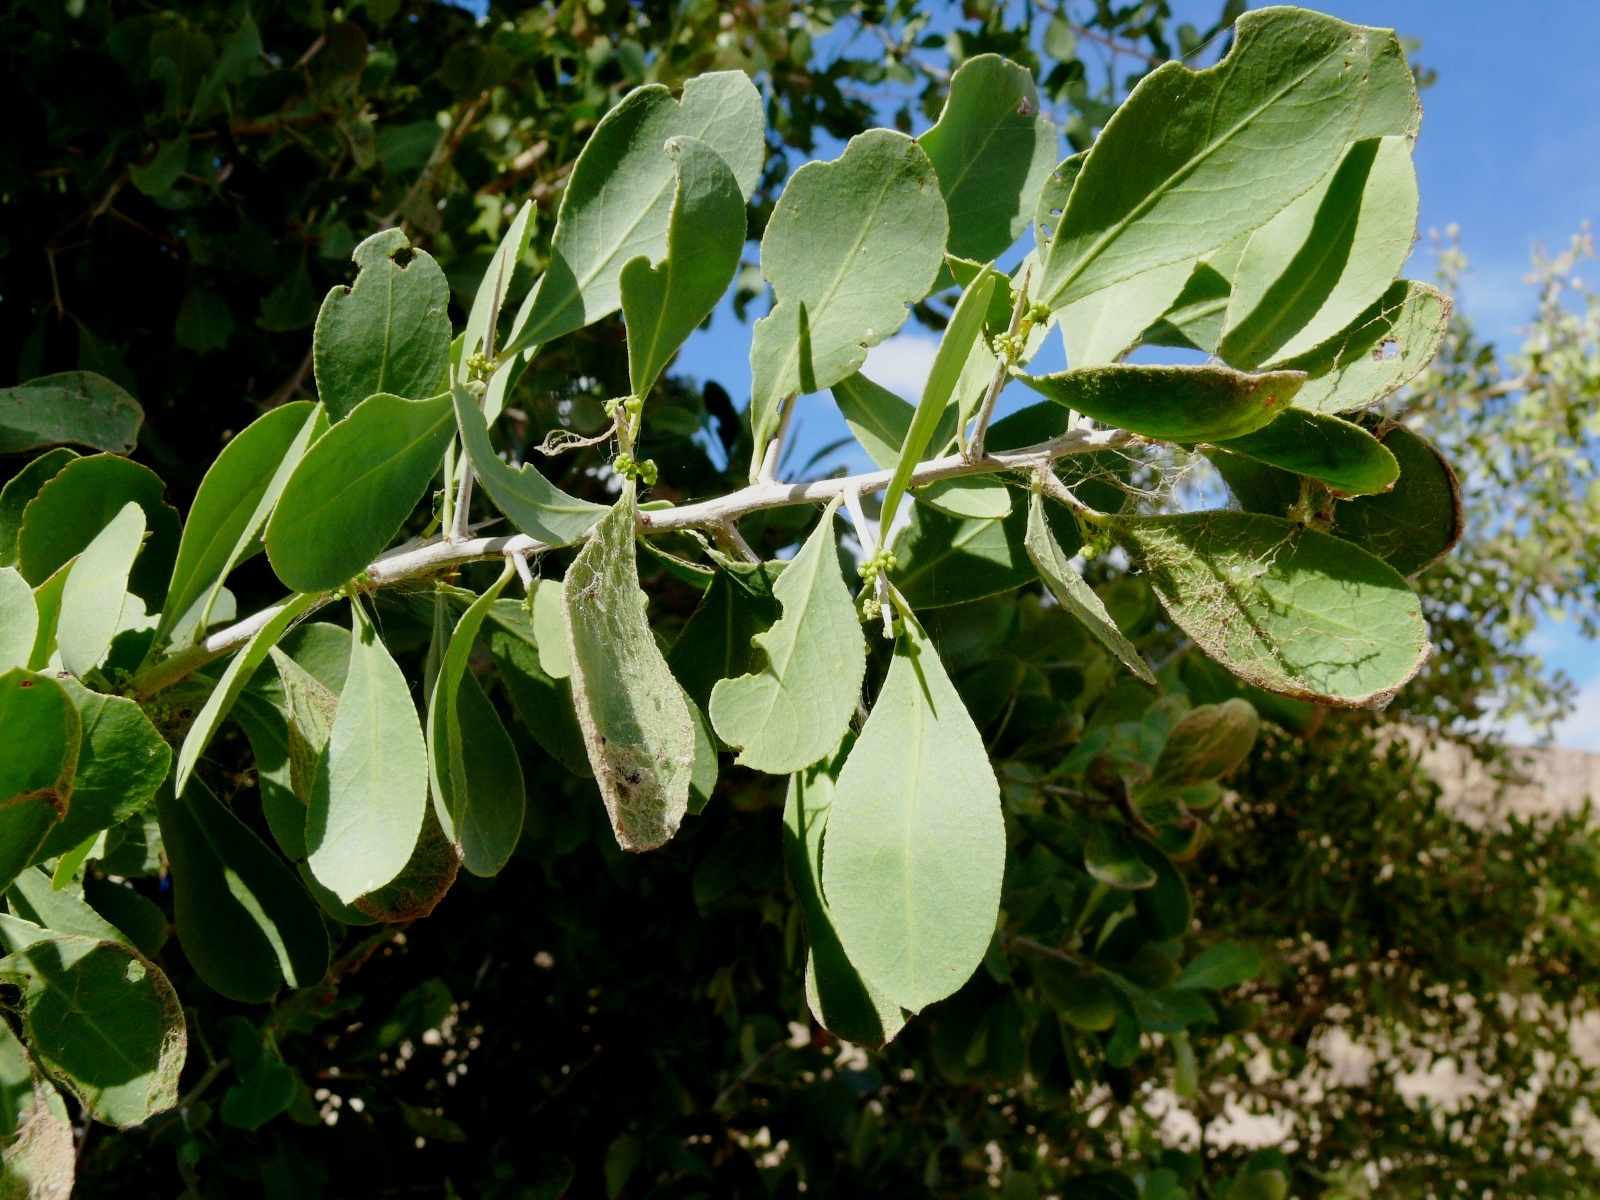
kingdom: Plantae
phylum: Tracheophyta
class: Magnoliopsida
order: Celastrales
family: Celastraceae
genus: Gymnosporia
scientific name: Gymnosporia senegalensis
